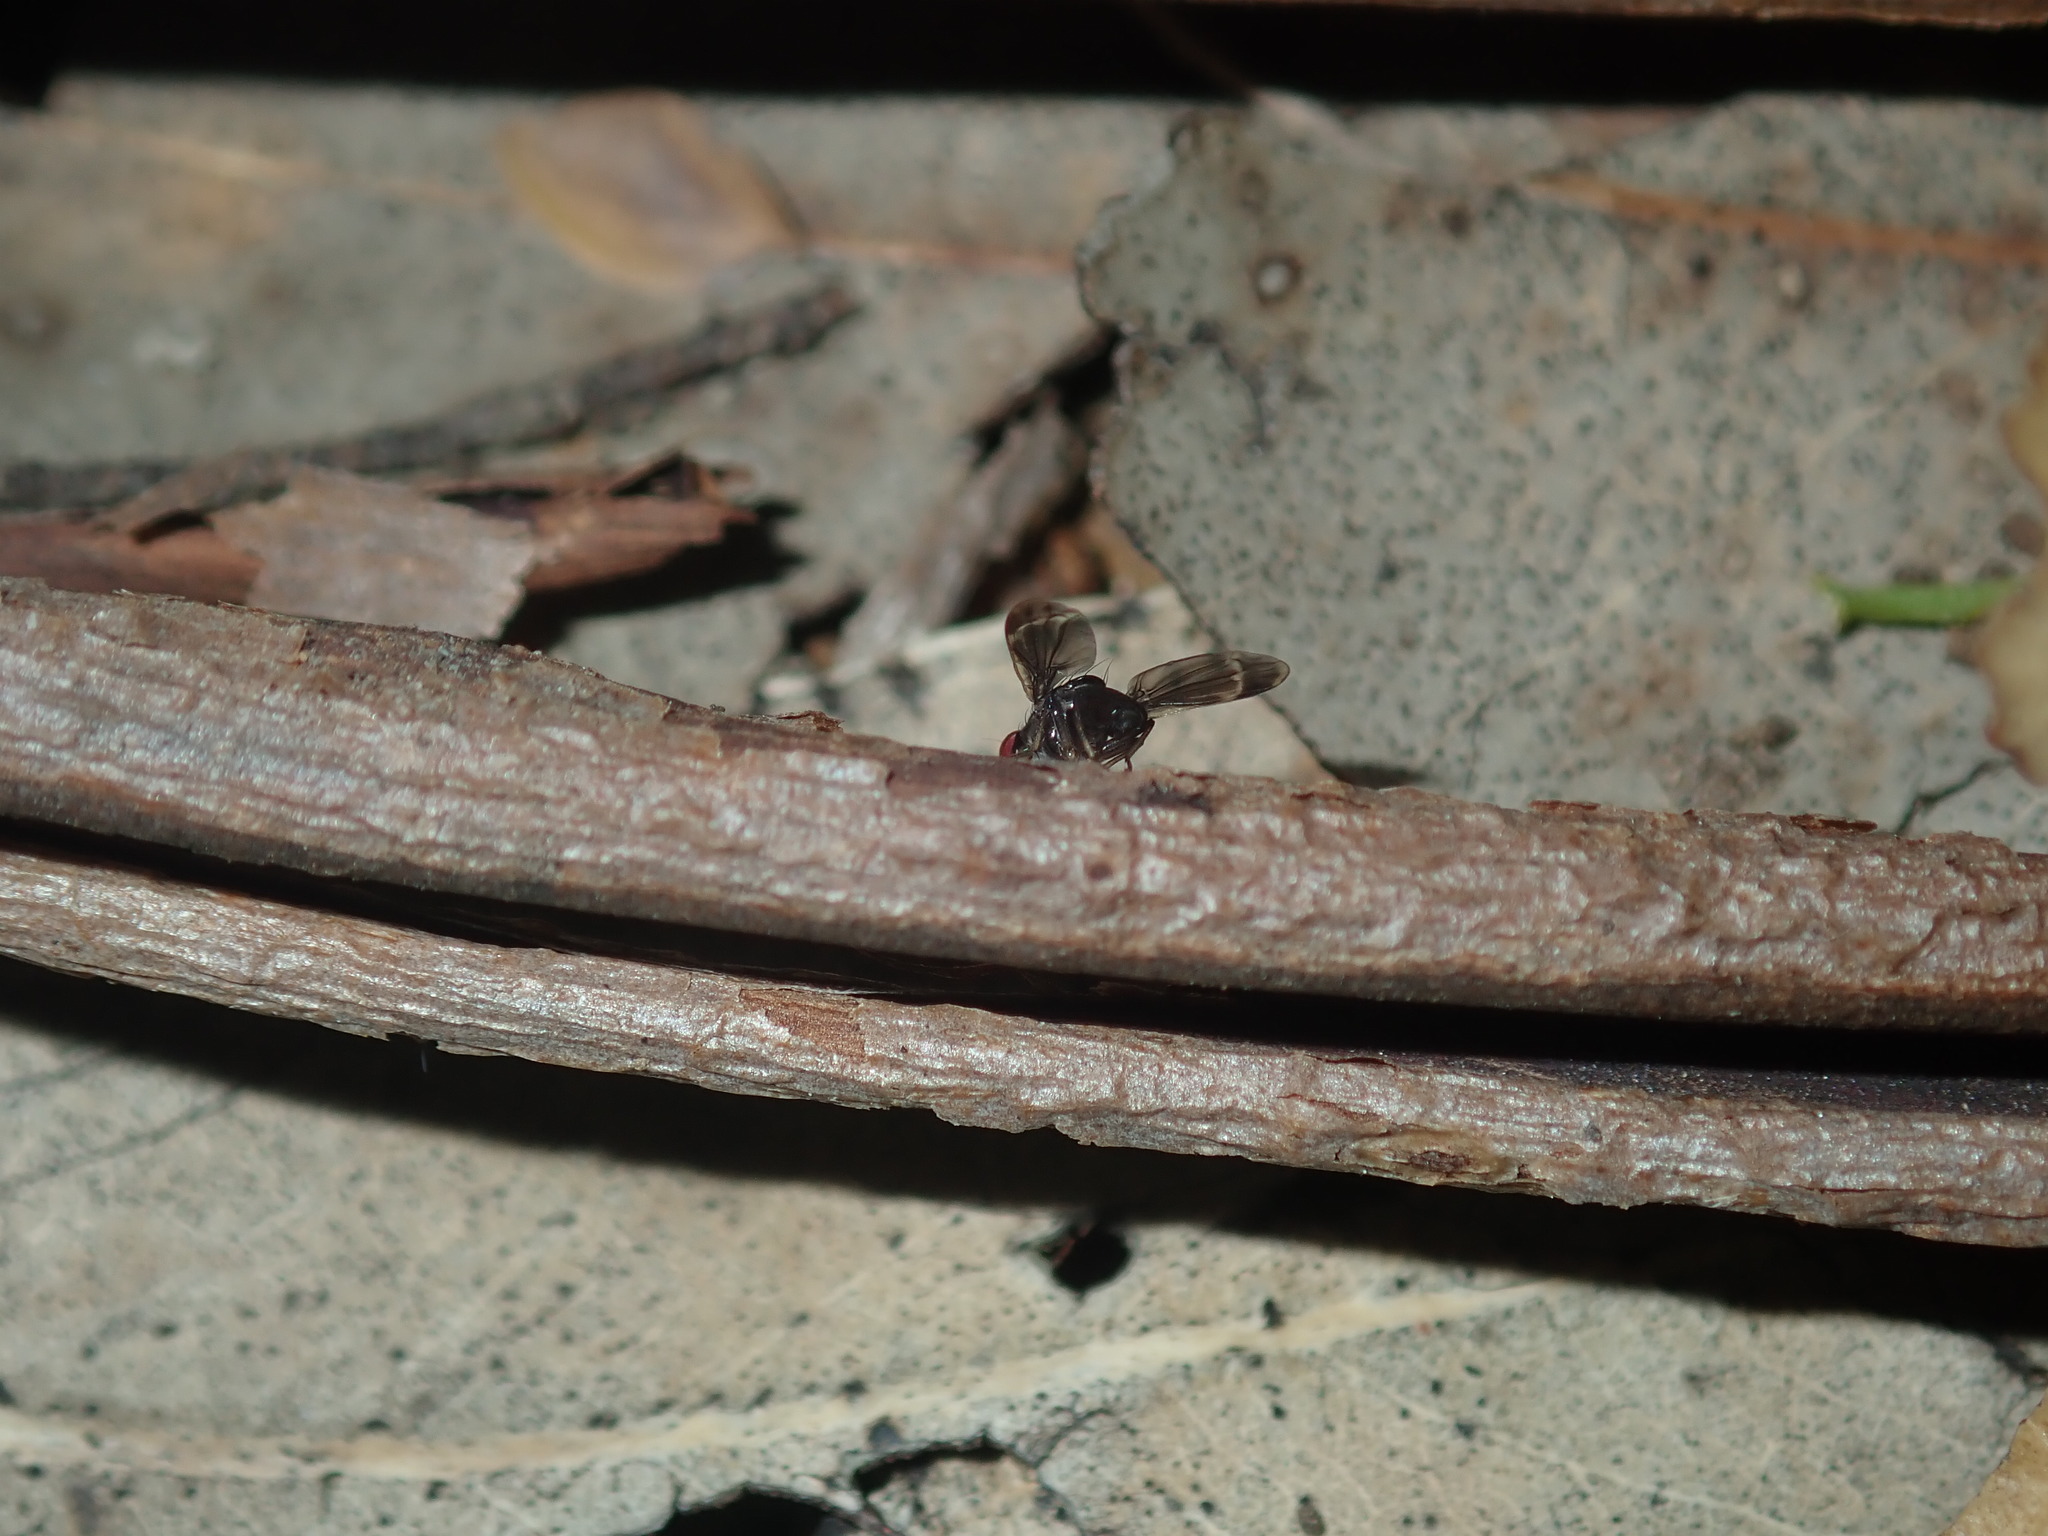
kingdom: Animalia
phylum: Arthropoda
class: Insecta
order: Diptera
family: Lauxaniidae
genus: Depressa
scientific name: Depressa albicosta
